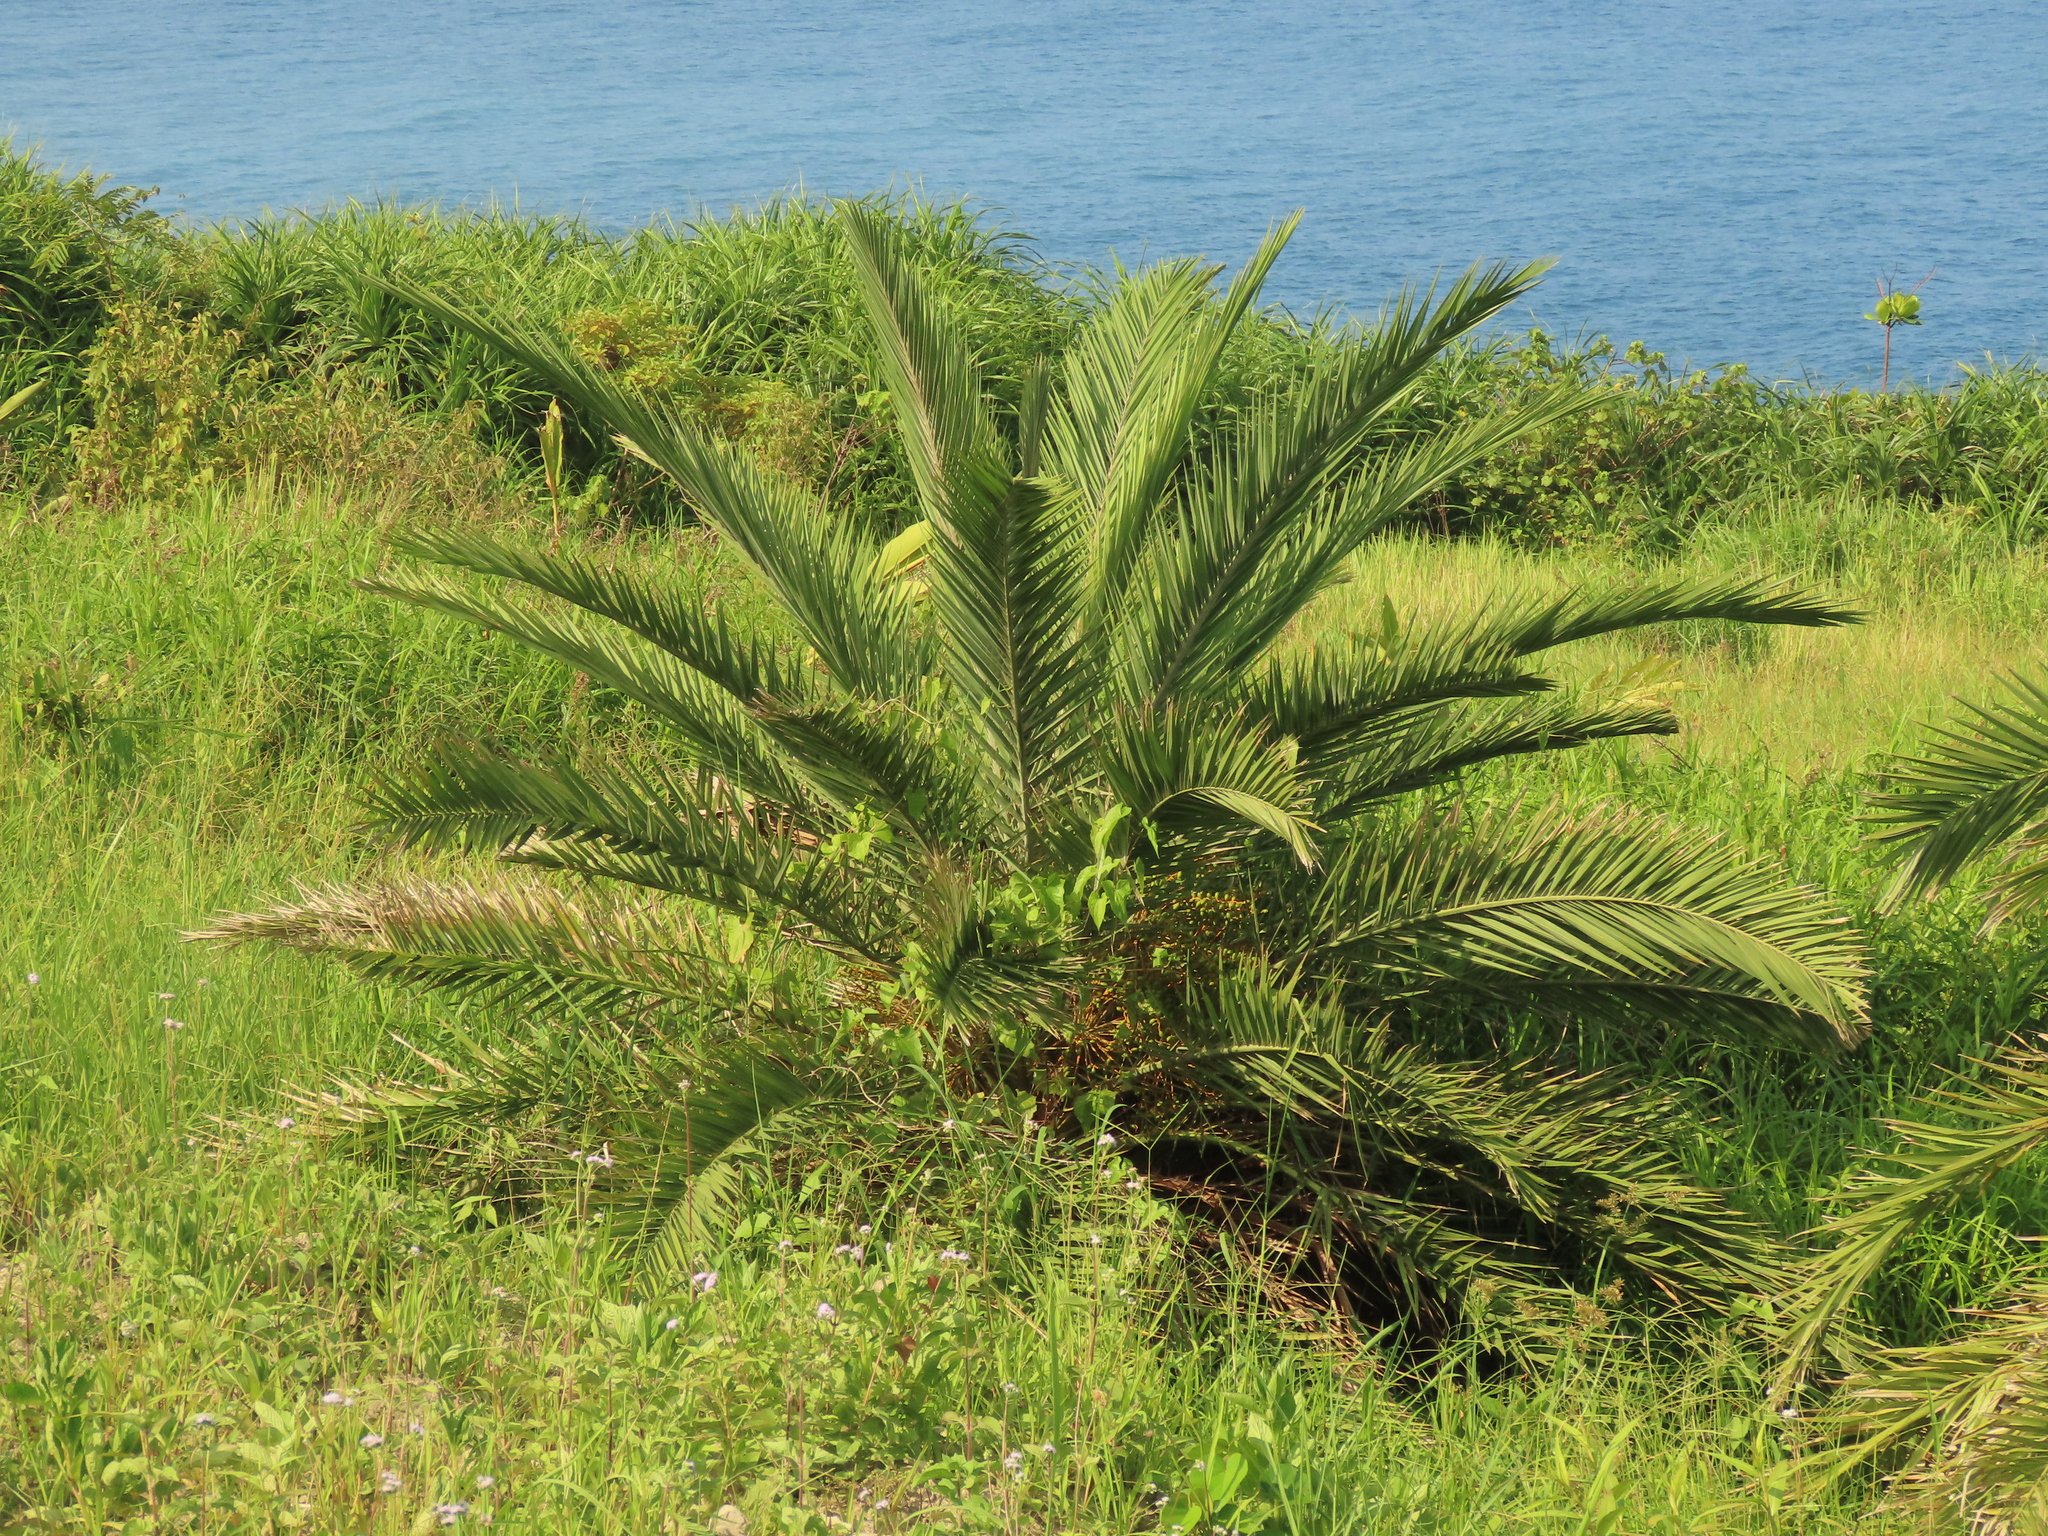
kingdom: Plantae
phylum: Tracheophyta
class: Liliopsida
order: Arecales
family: Arecaceae
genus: Phoenix
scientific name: Phoenix loureiroi
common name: Loureiro's palm
